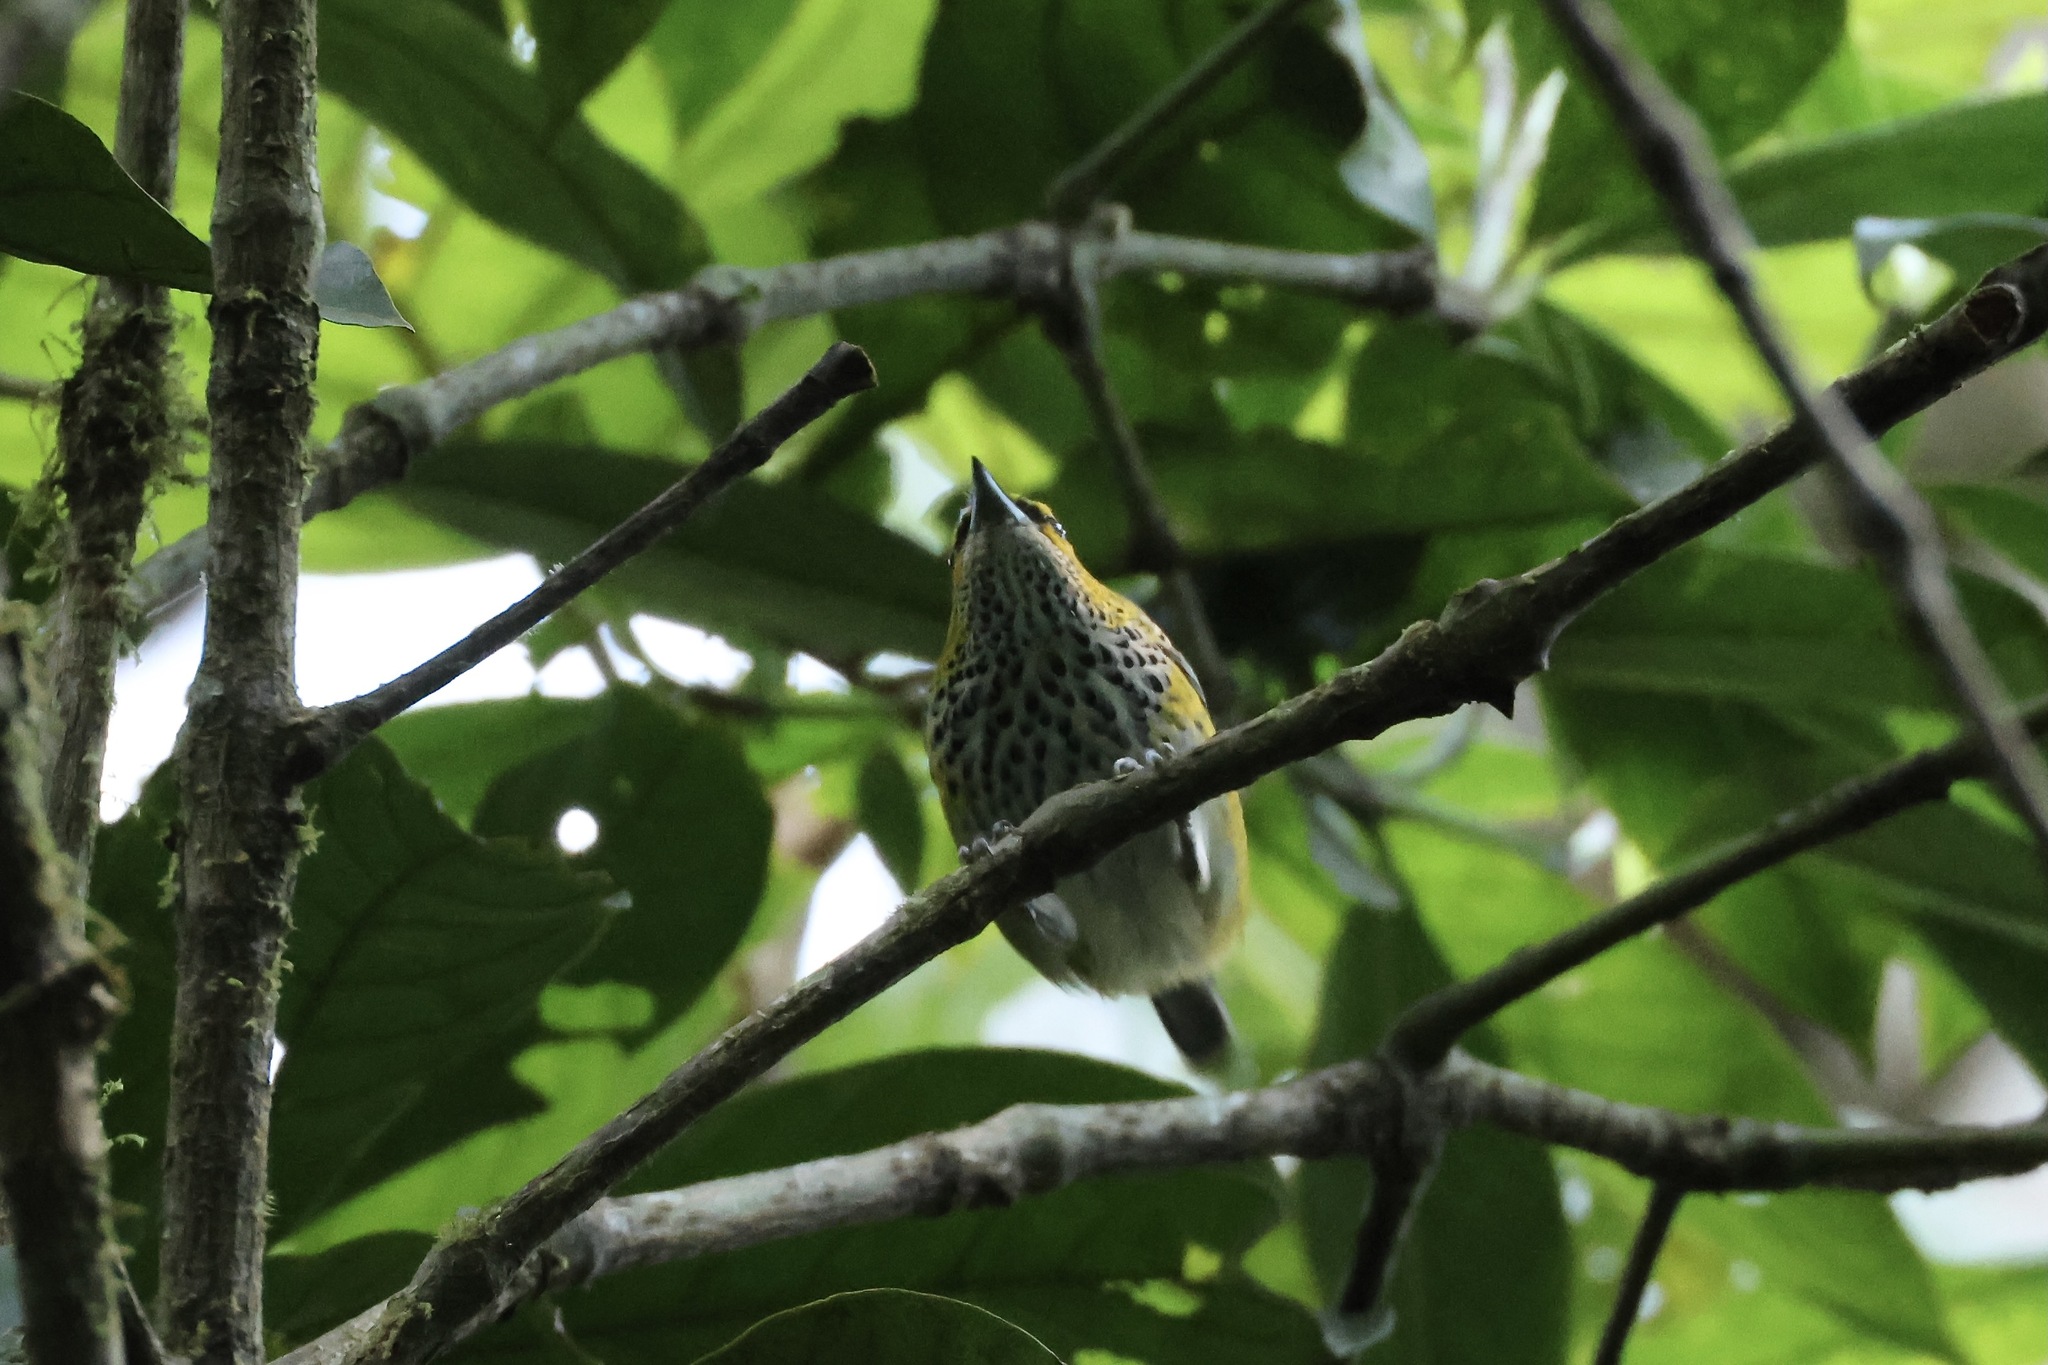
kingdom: Animalia
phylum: Chordata
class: Aves
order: Passeriformes
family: Thraupidae
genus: Ixothraupis
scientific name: Ixothraupis guttata
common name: Speckled tanager
